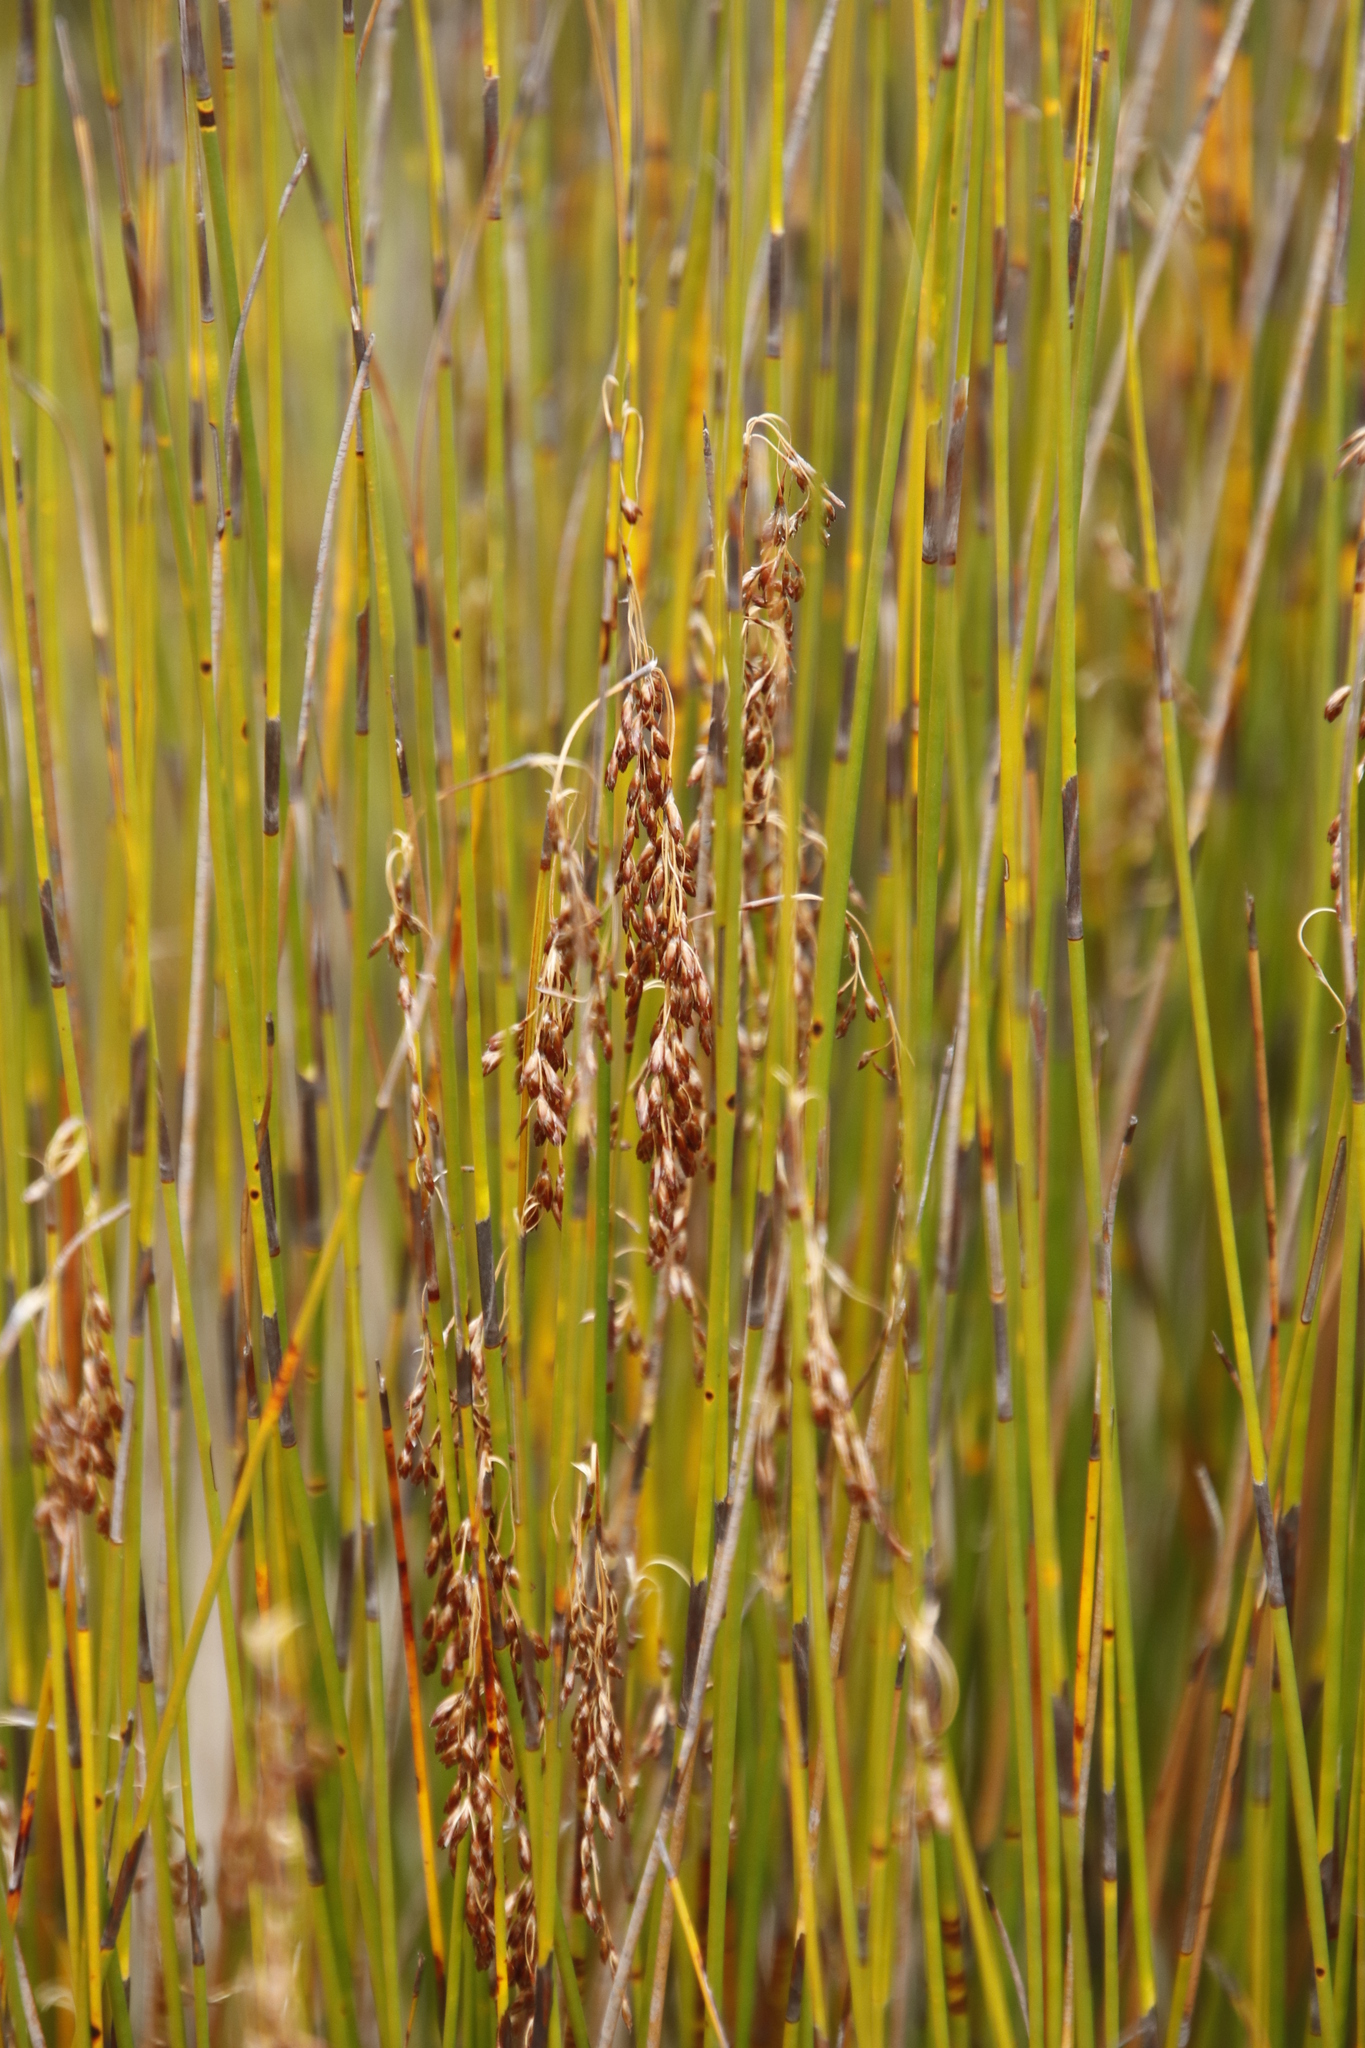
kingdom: Plantae
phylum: Tracheophyta
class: Liliopsida
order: Poales
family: Restionaceae
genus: Rhodocoma
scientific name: Rhodocoma fruticosa
